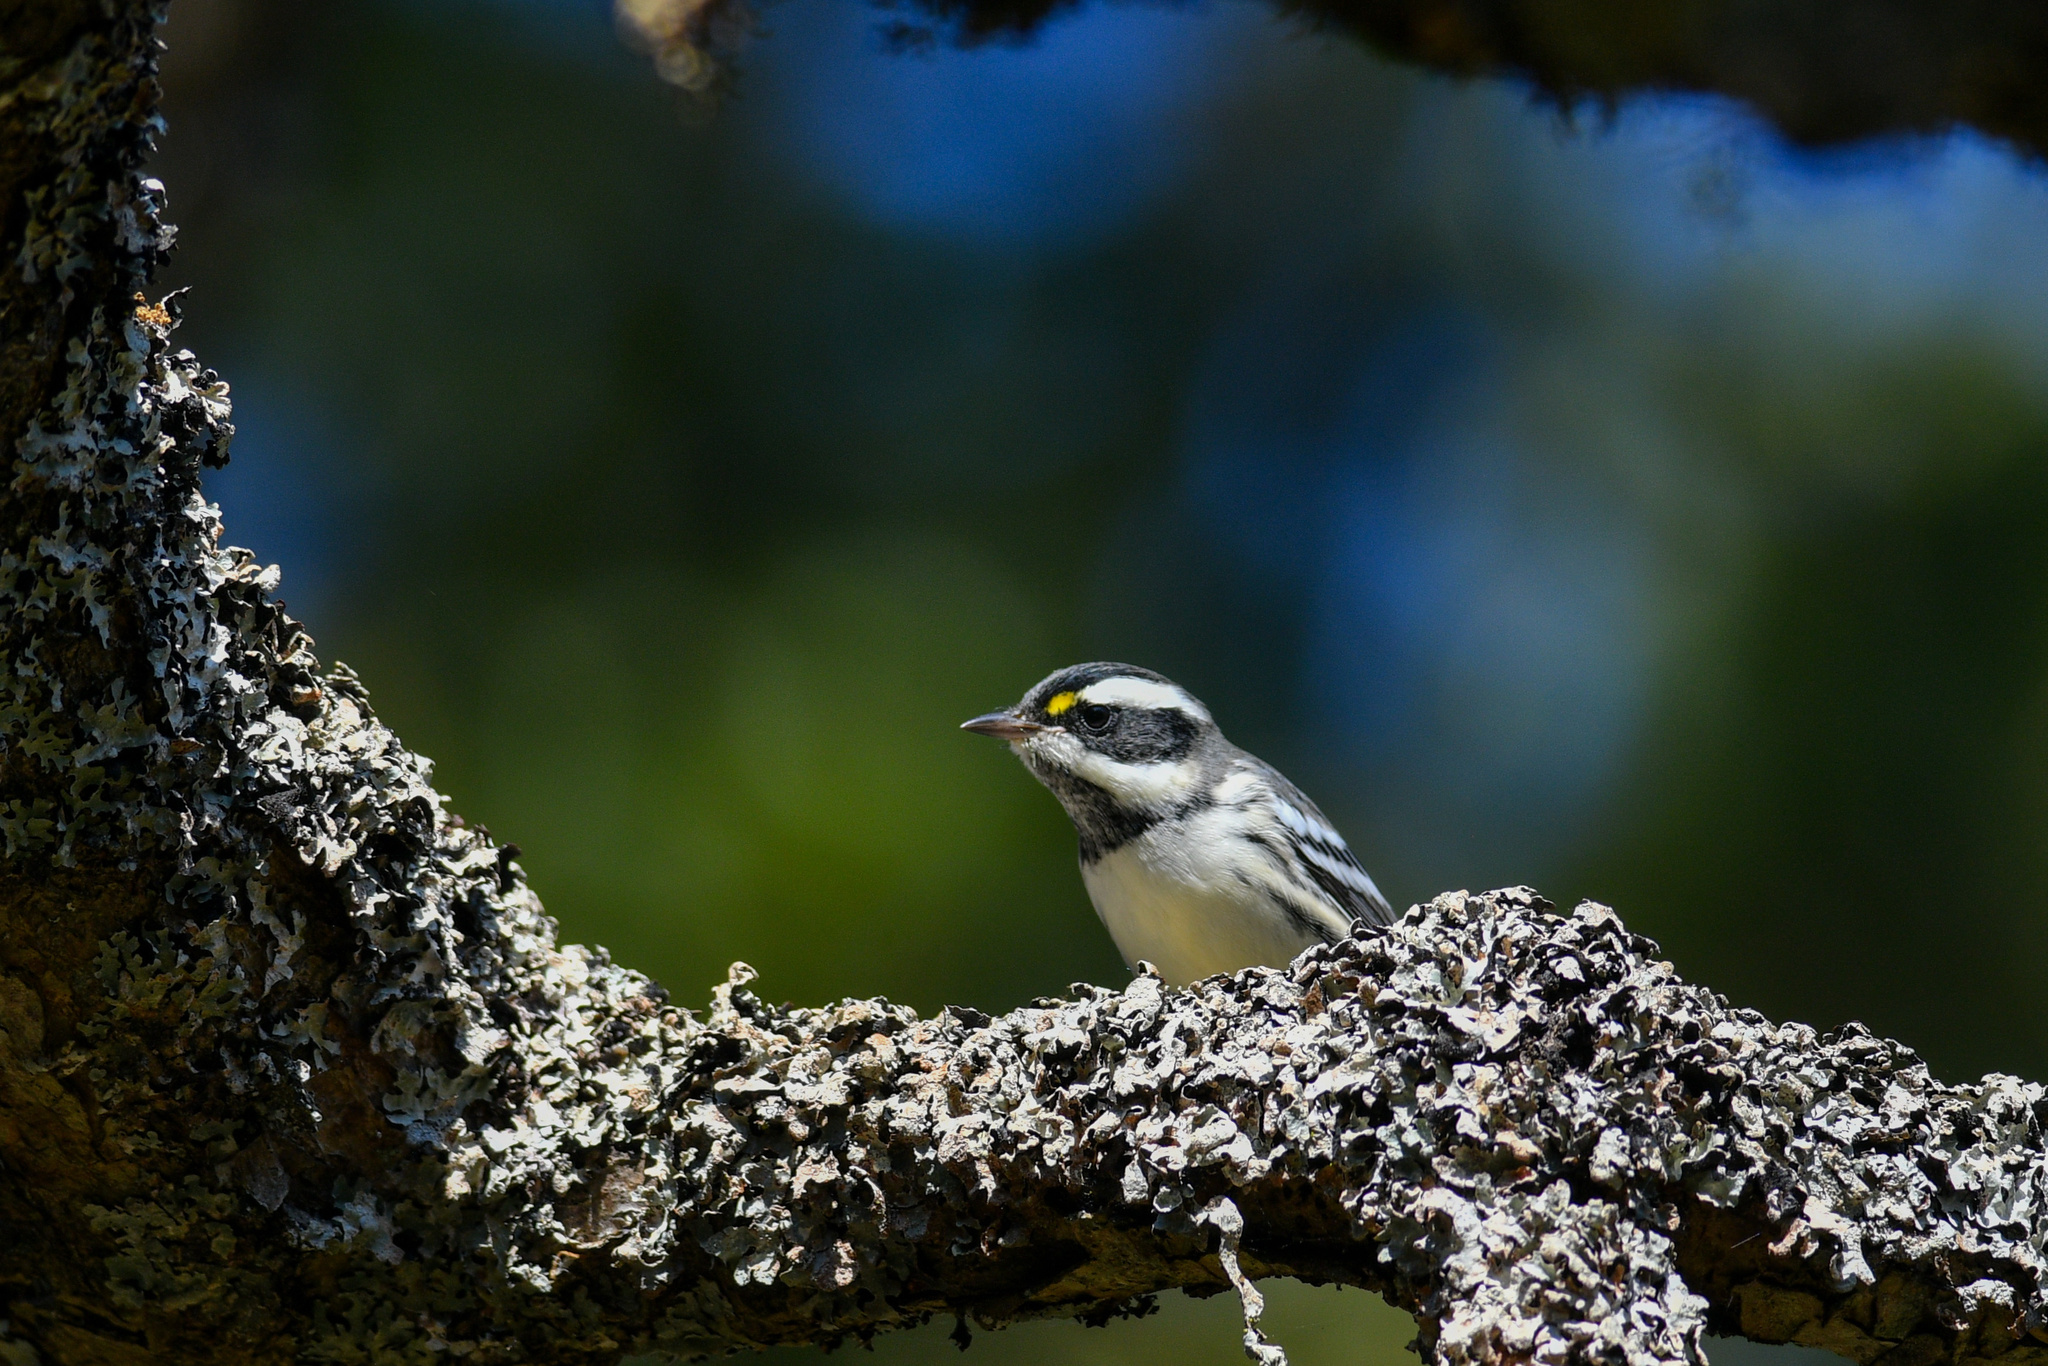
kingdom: Animalia
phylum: Chordata
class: Aves
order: Passeriformes
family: Parulidae
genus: Setophaga
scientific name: Setophaga nigrescens
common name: Black-throated gray warbler
